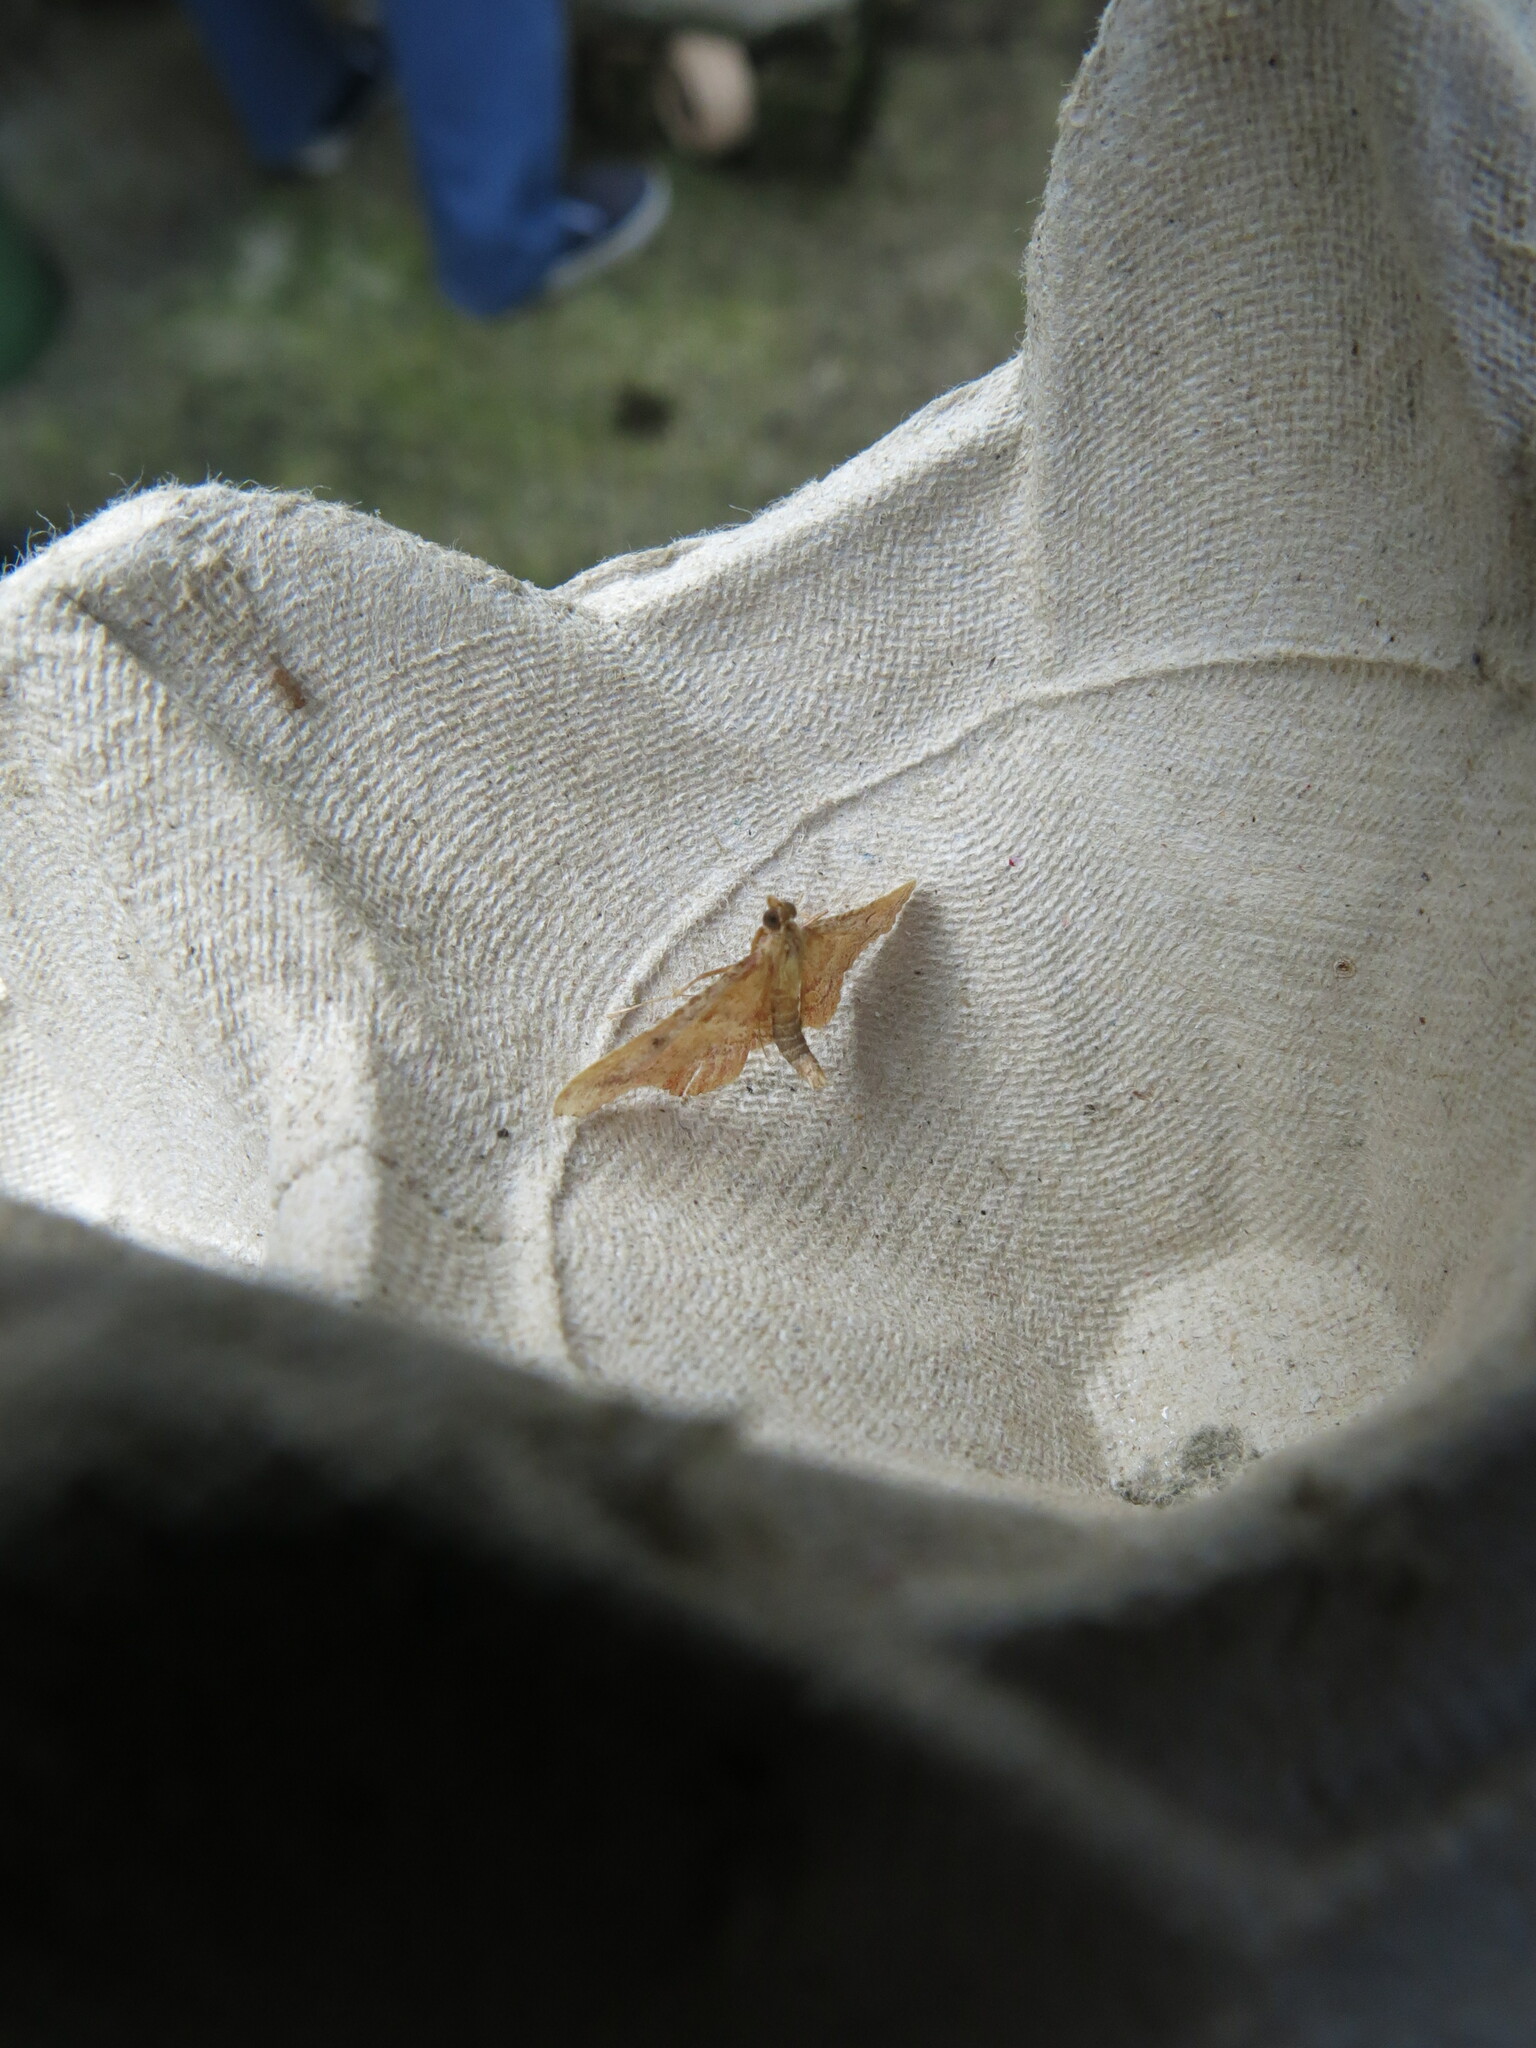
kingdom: Animalia
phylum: Arthropoda
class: Insecta
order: Lepidoptera
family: Pyralidae
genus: Endotricha
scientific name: Endotricha flammealis
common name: Rosy tabby
